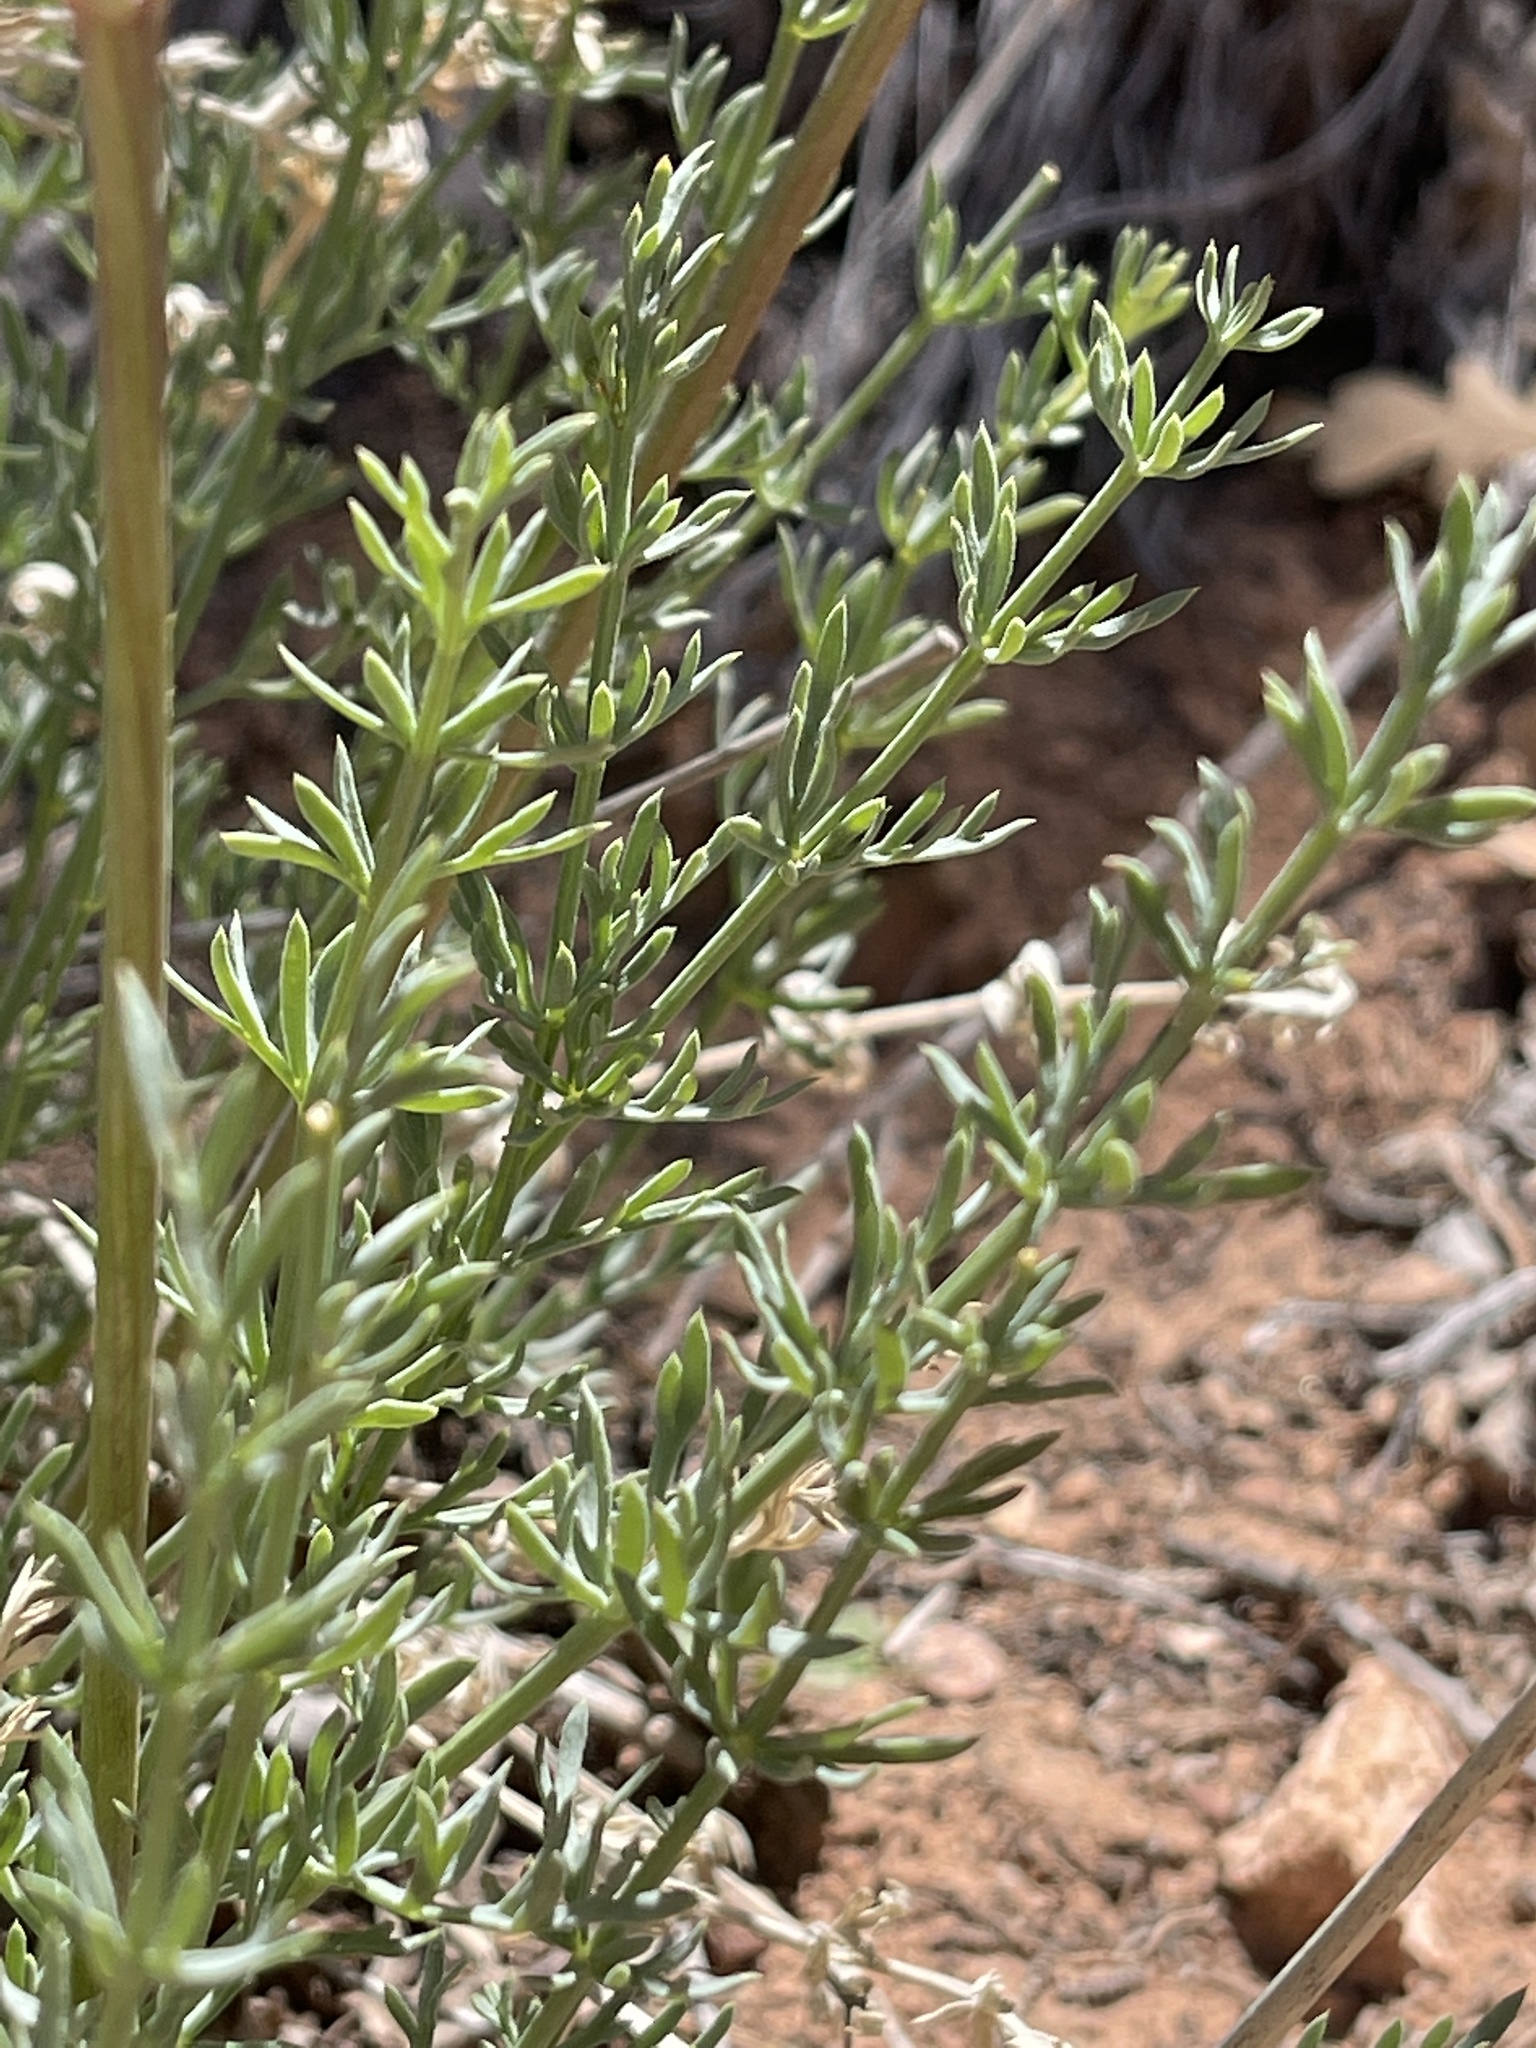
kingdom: Plantae
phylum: Tracheophyta
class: Magnoliopsida
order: Apiales
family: Apiaceae
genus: Lomatium
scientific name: Lomatium parryi
